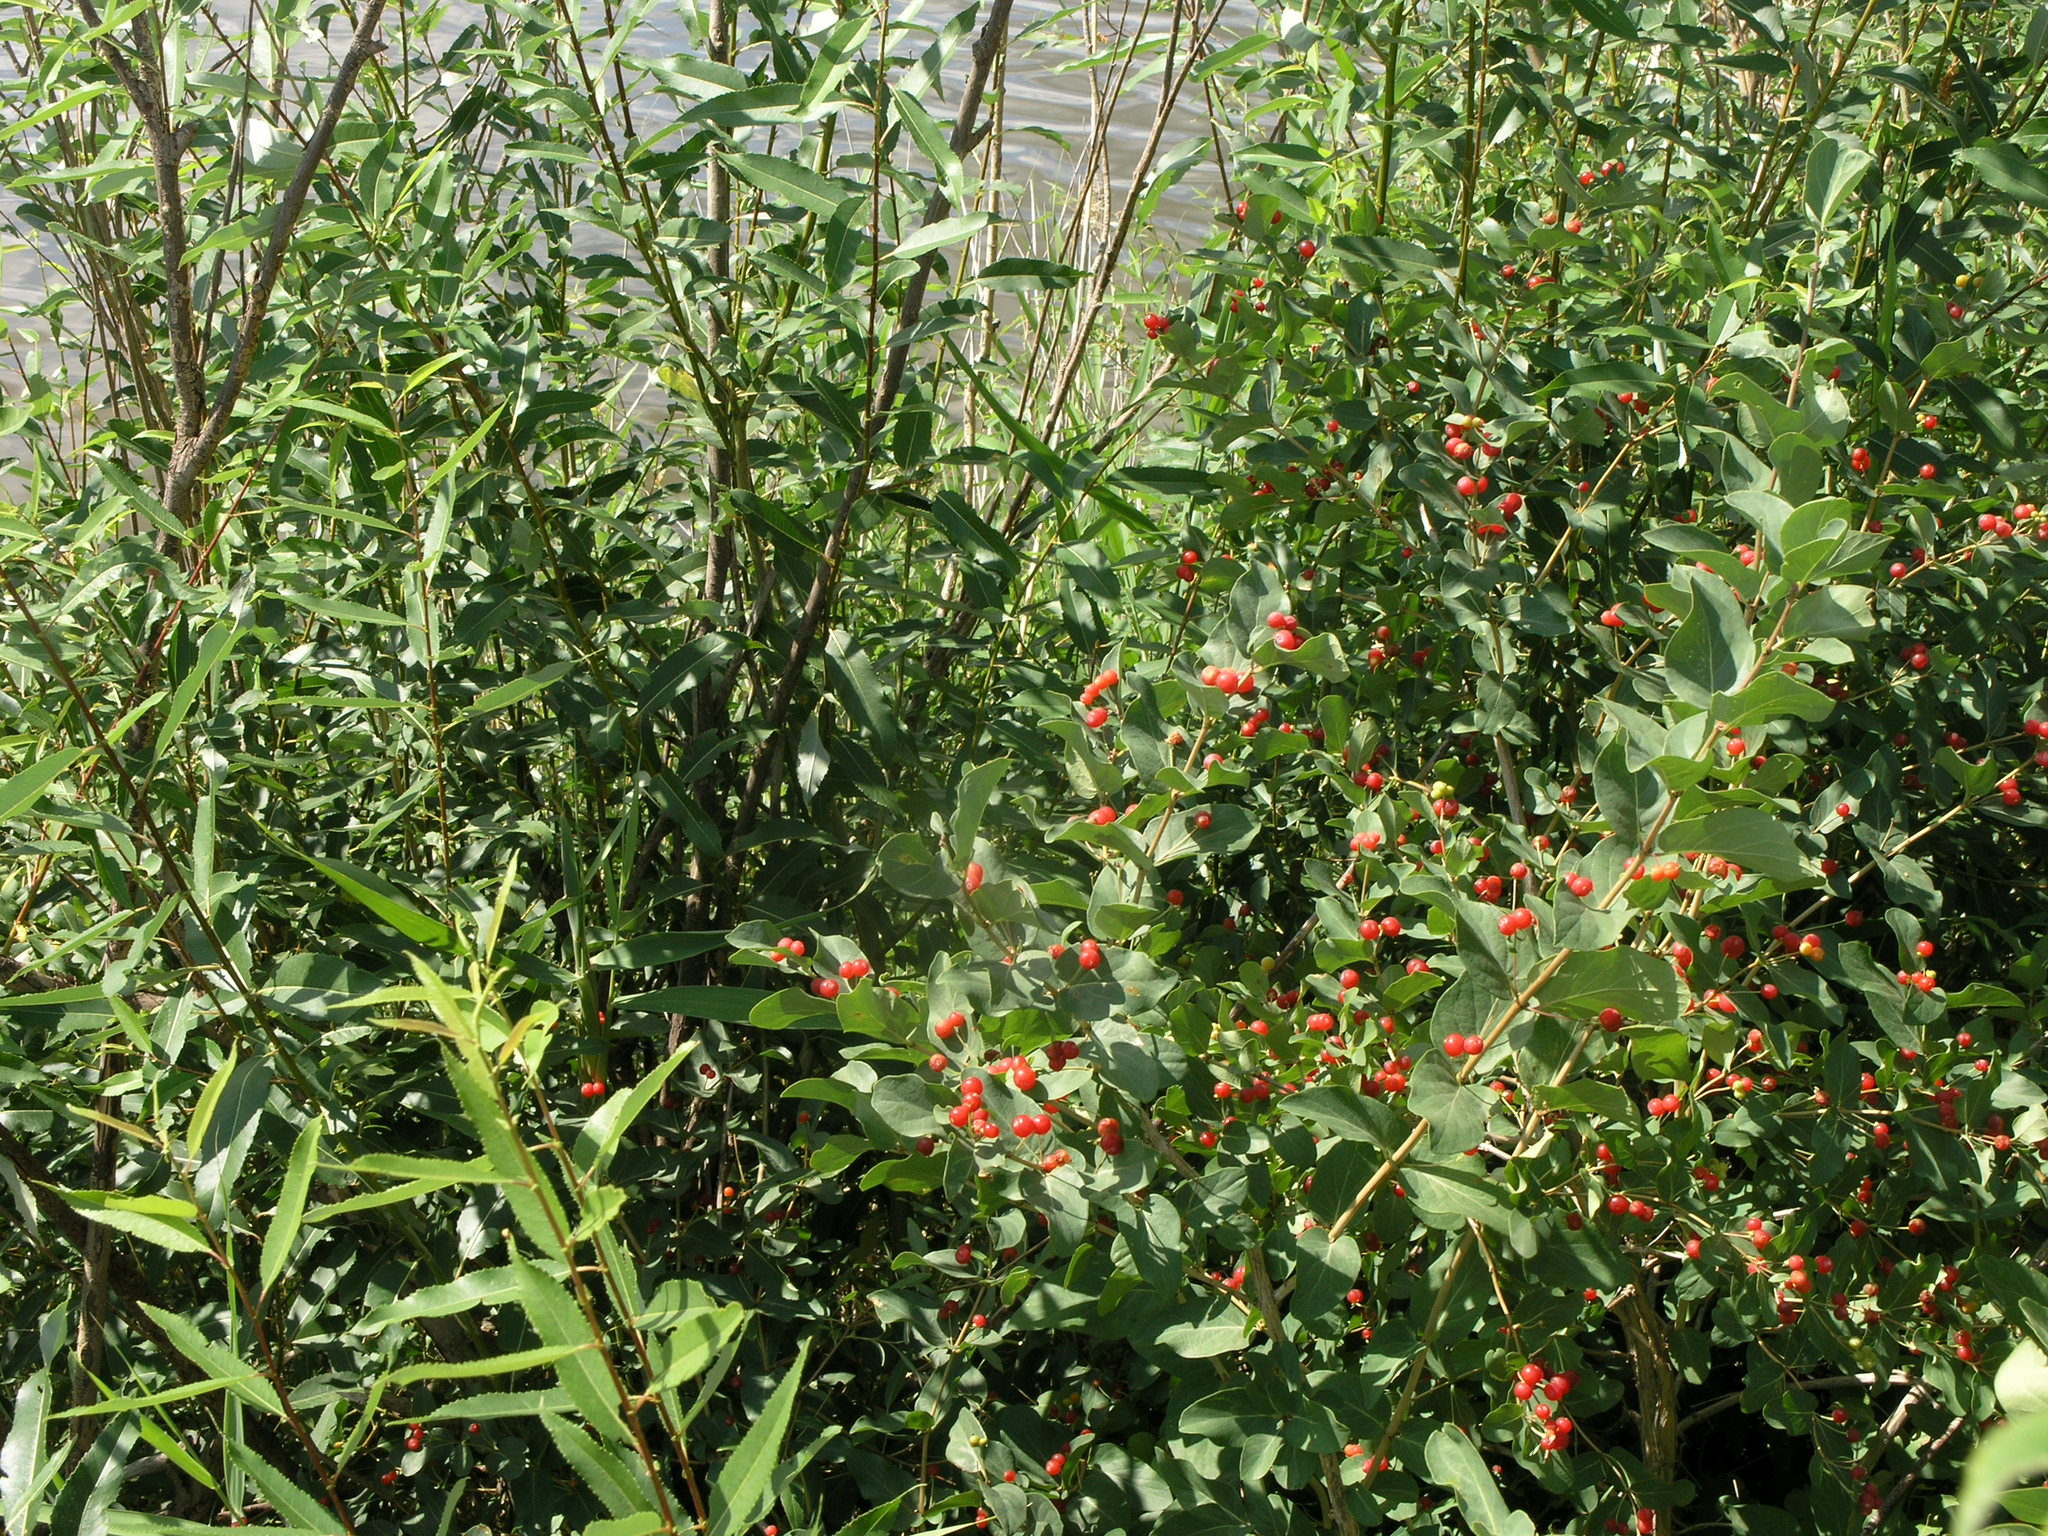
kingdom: Plantae
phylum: Tracheophyta
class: Magnoliopsida
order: Dipsacales
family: Caprifoliaceae
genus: Lonicera
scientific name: Lonicera tatarica
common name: Tatarian honeysuckle
